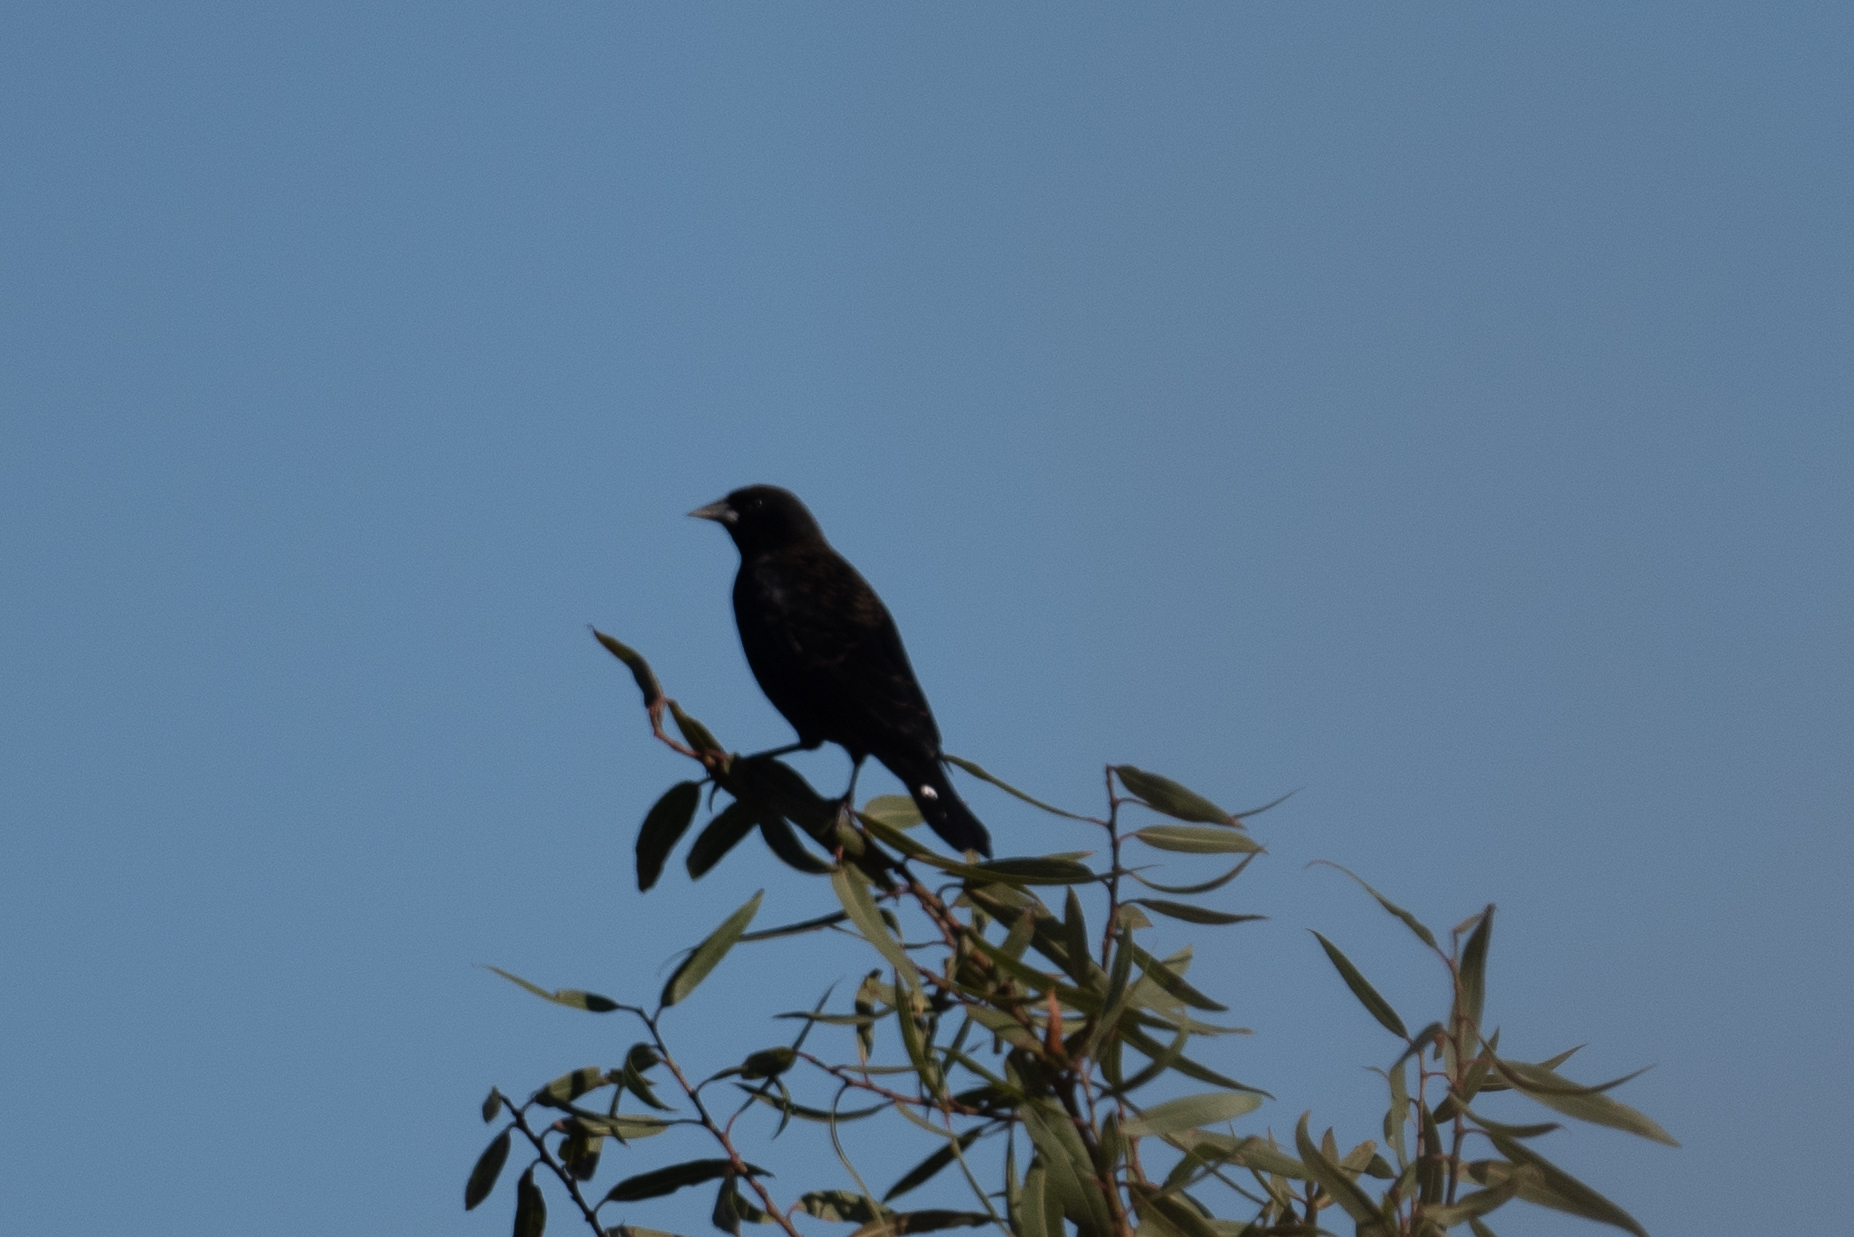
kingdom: Animalia
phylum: Chordata
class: Aves
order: Passeriformes
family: Icteridae
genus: Agelaius
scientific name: Agelaius phoeniceus
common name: Red-winged blackbird
